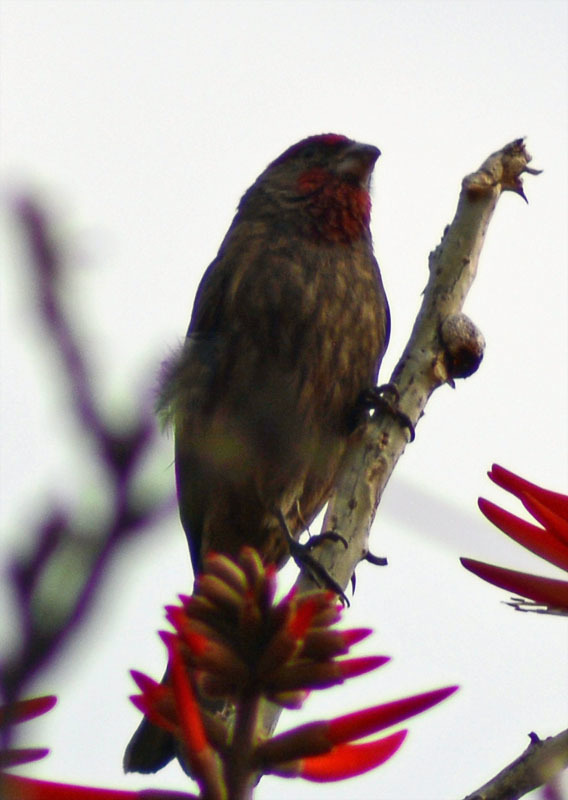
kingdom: Animalia
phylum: Chordata
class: Aves
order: Passeriformes
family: Fringillidae
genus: Haemorhous
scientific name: Haemorhous mexicanus
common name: House finch
